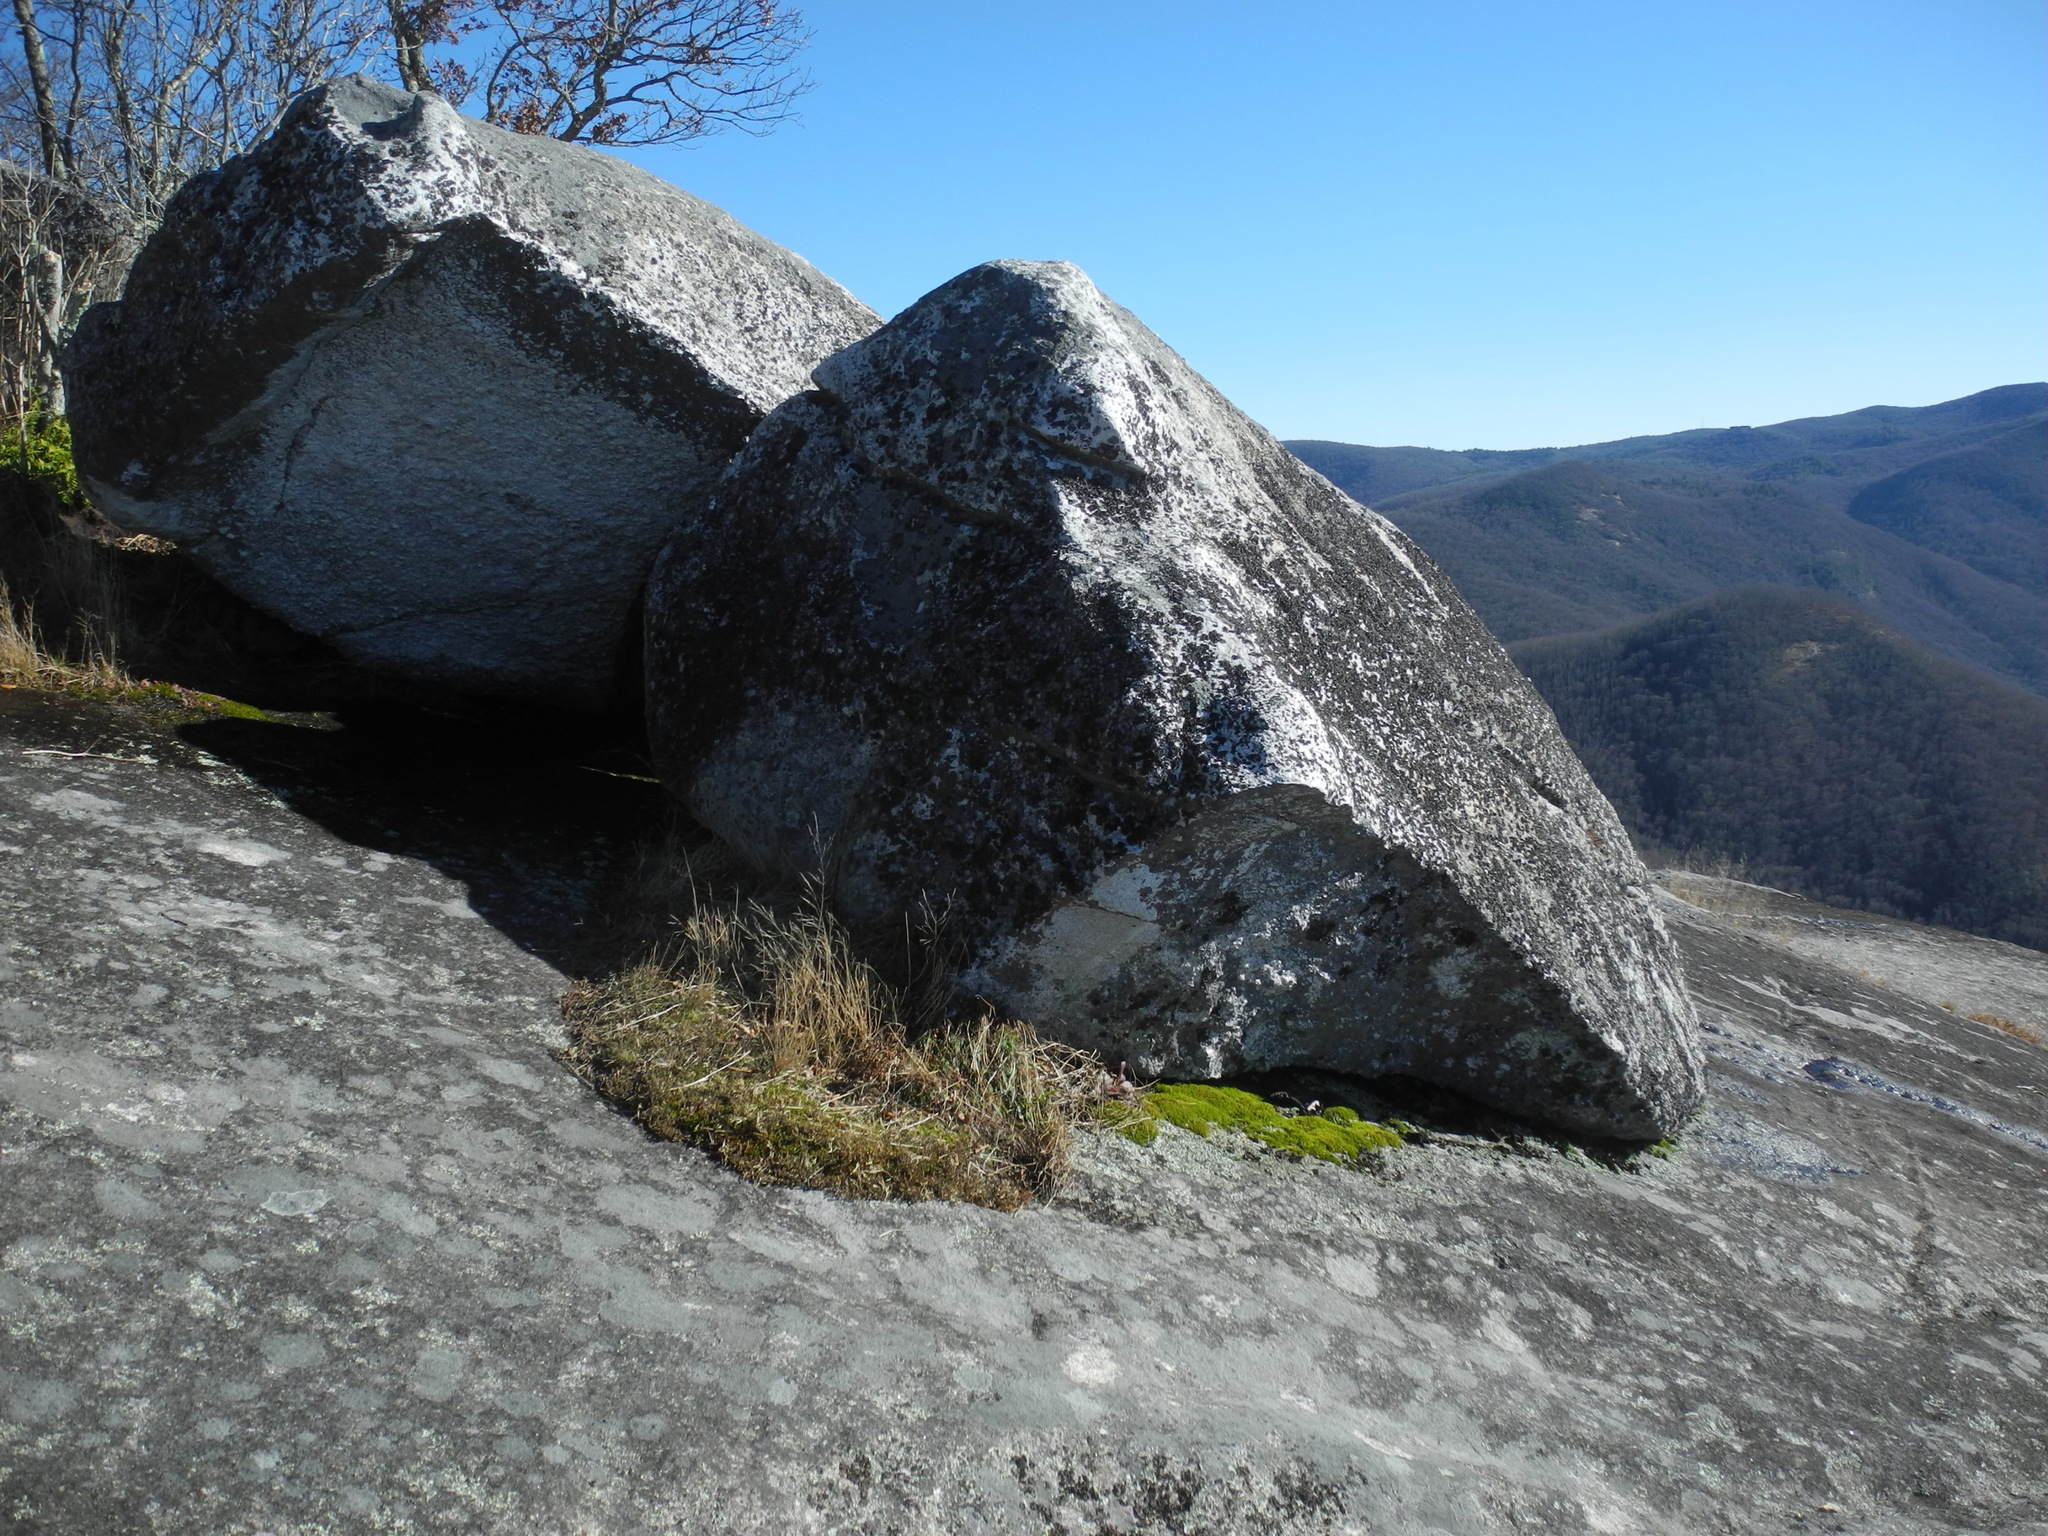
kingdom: Fungi
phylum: Ascomycota
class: Lecanoromycetes
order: Umbilicariales
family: Umbilicariaceae
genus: Umbilicaria
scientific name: Umbilicaria mammulata
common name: Smooth rock tripe
